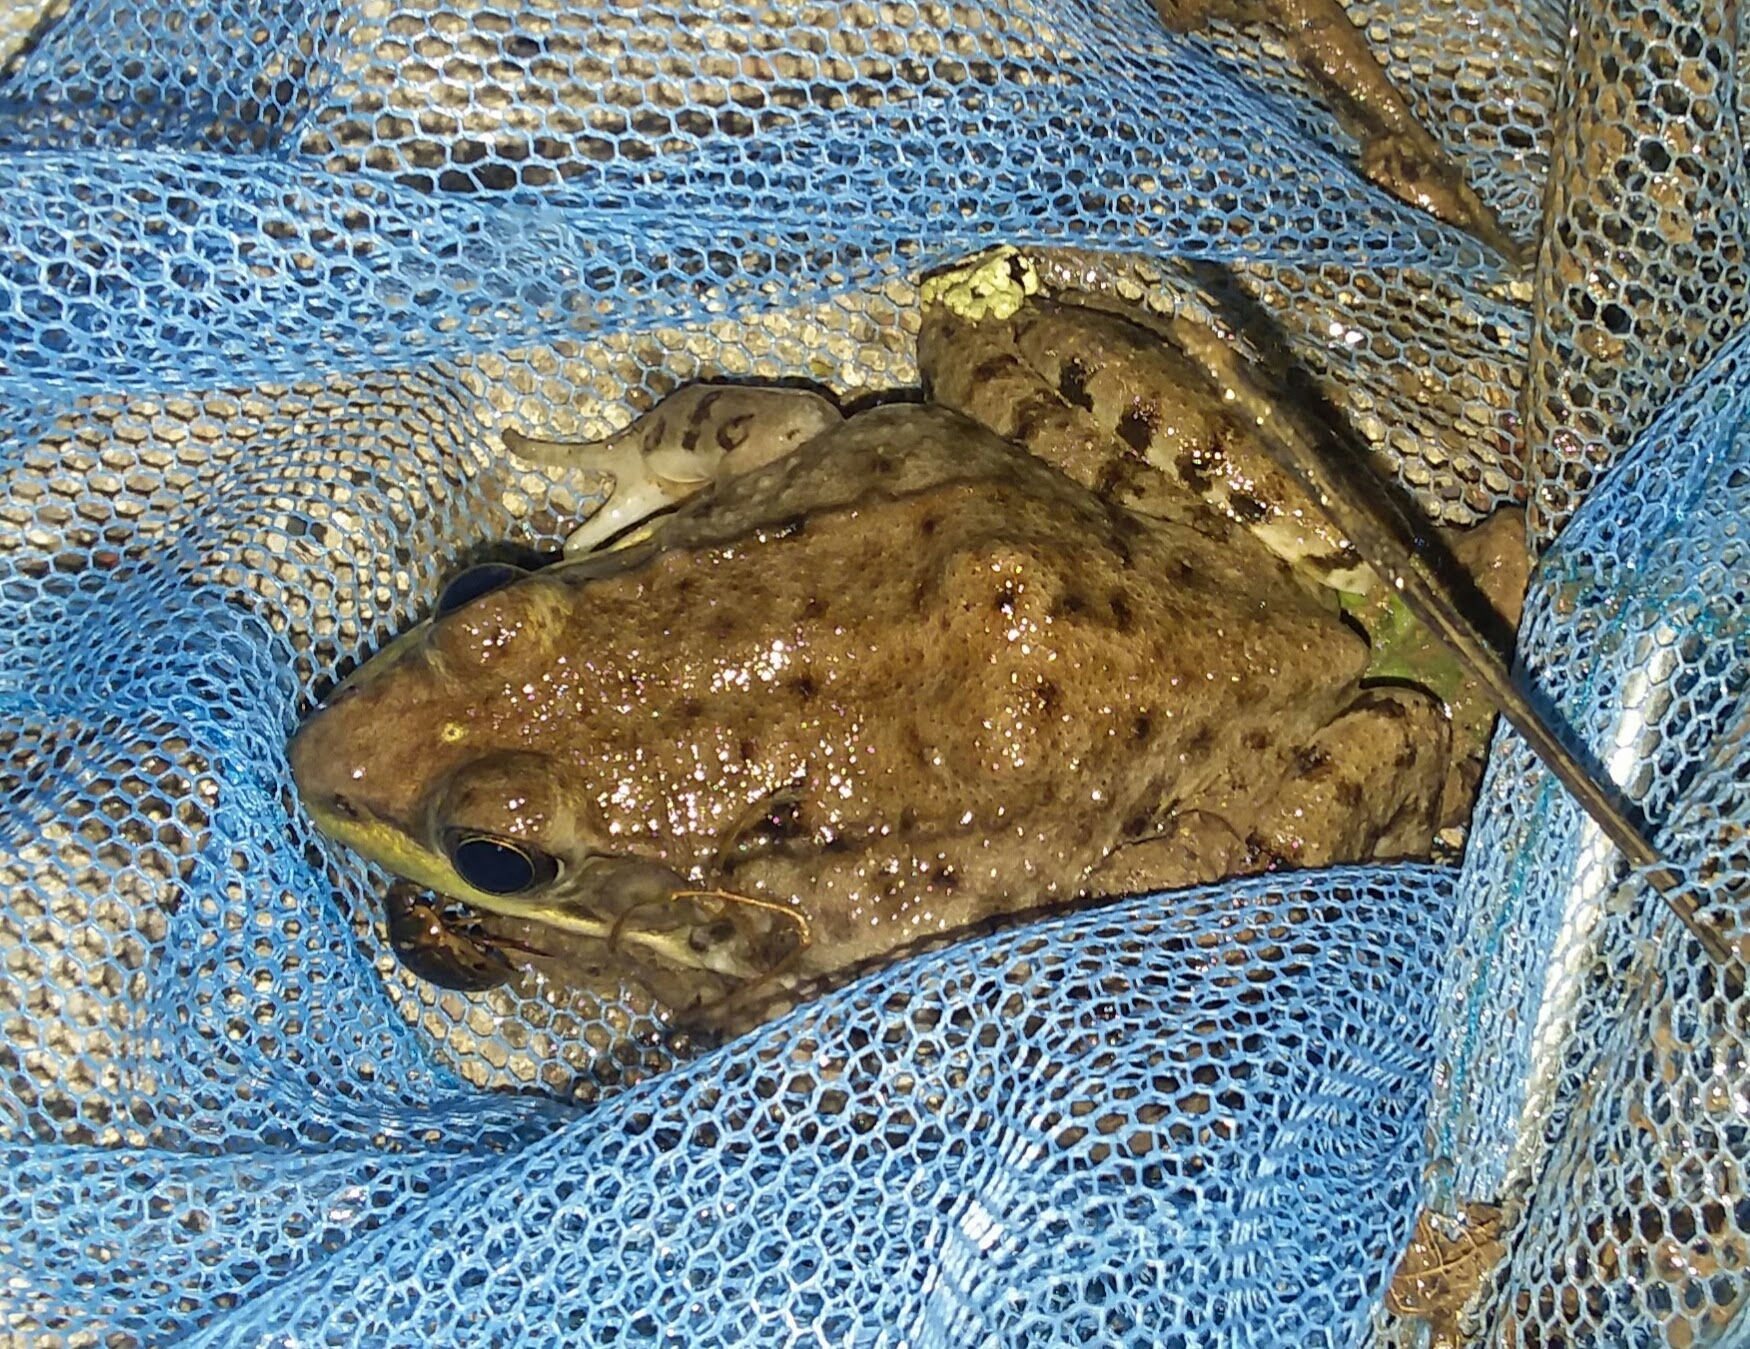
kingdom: Animalia
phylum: Chordata
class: Amphibia
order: Anura
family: Ranidae
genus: Lithobates
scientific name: Lithobates clamitans
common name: Green frog
